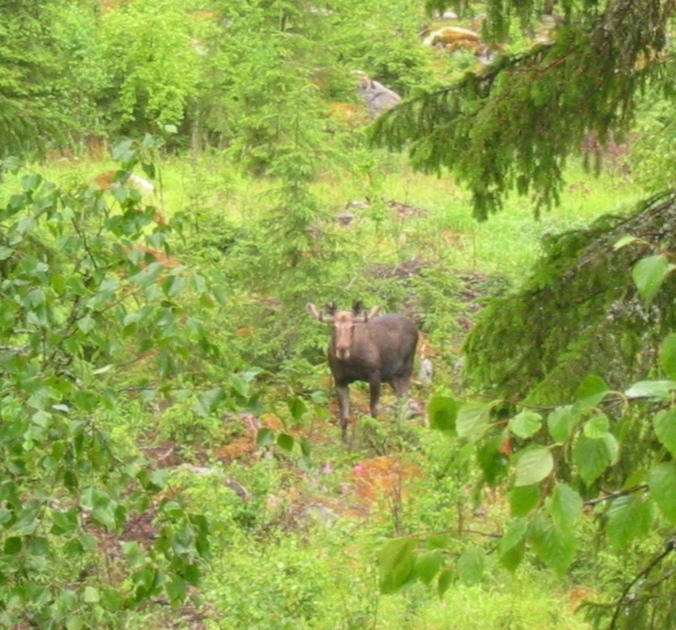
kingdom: Animalia
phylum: Chordata
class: Mammalia
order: Artiodactyla
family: Cervidae
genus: Alces
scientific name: Alces alces
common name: Moose
